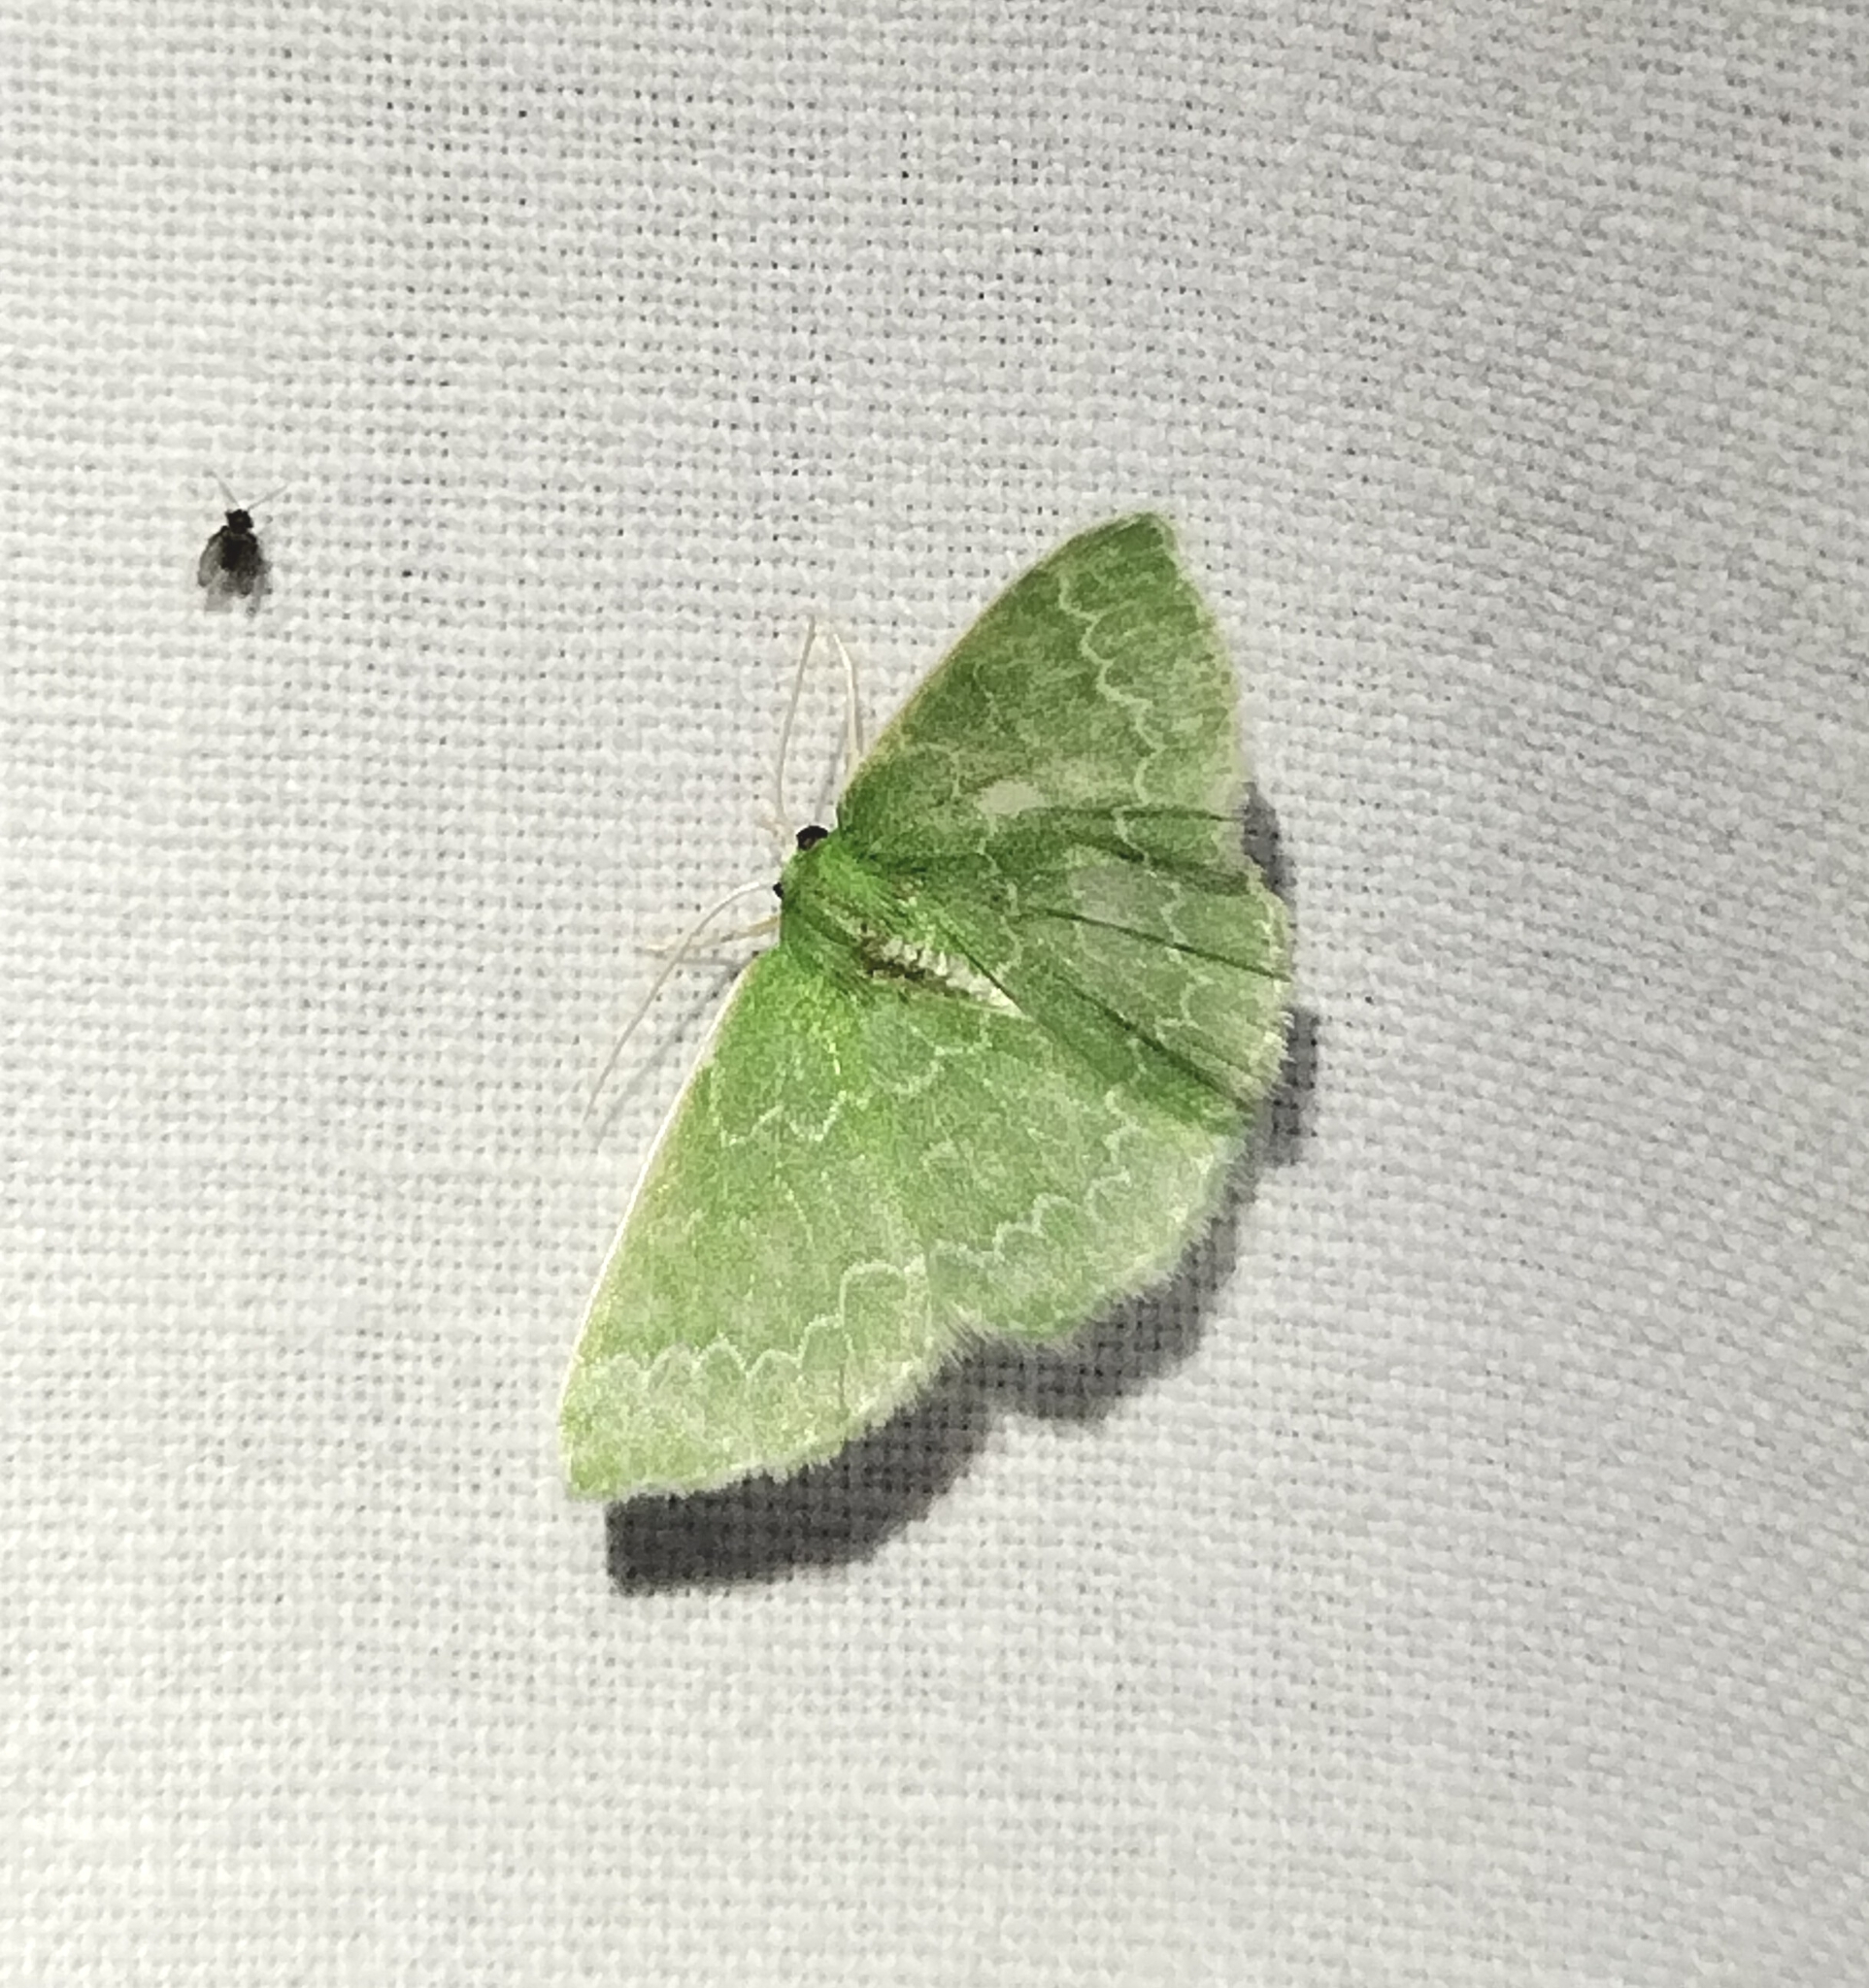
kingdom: Animalia
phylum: Arthropoda
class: Insecta
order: Lepidoptera
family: Geometridae
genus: Synchlora
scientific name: Synchlora frondaria
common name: Southern emerald
